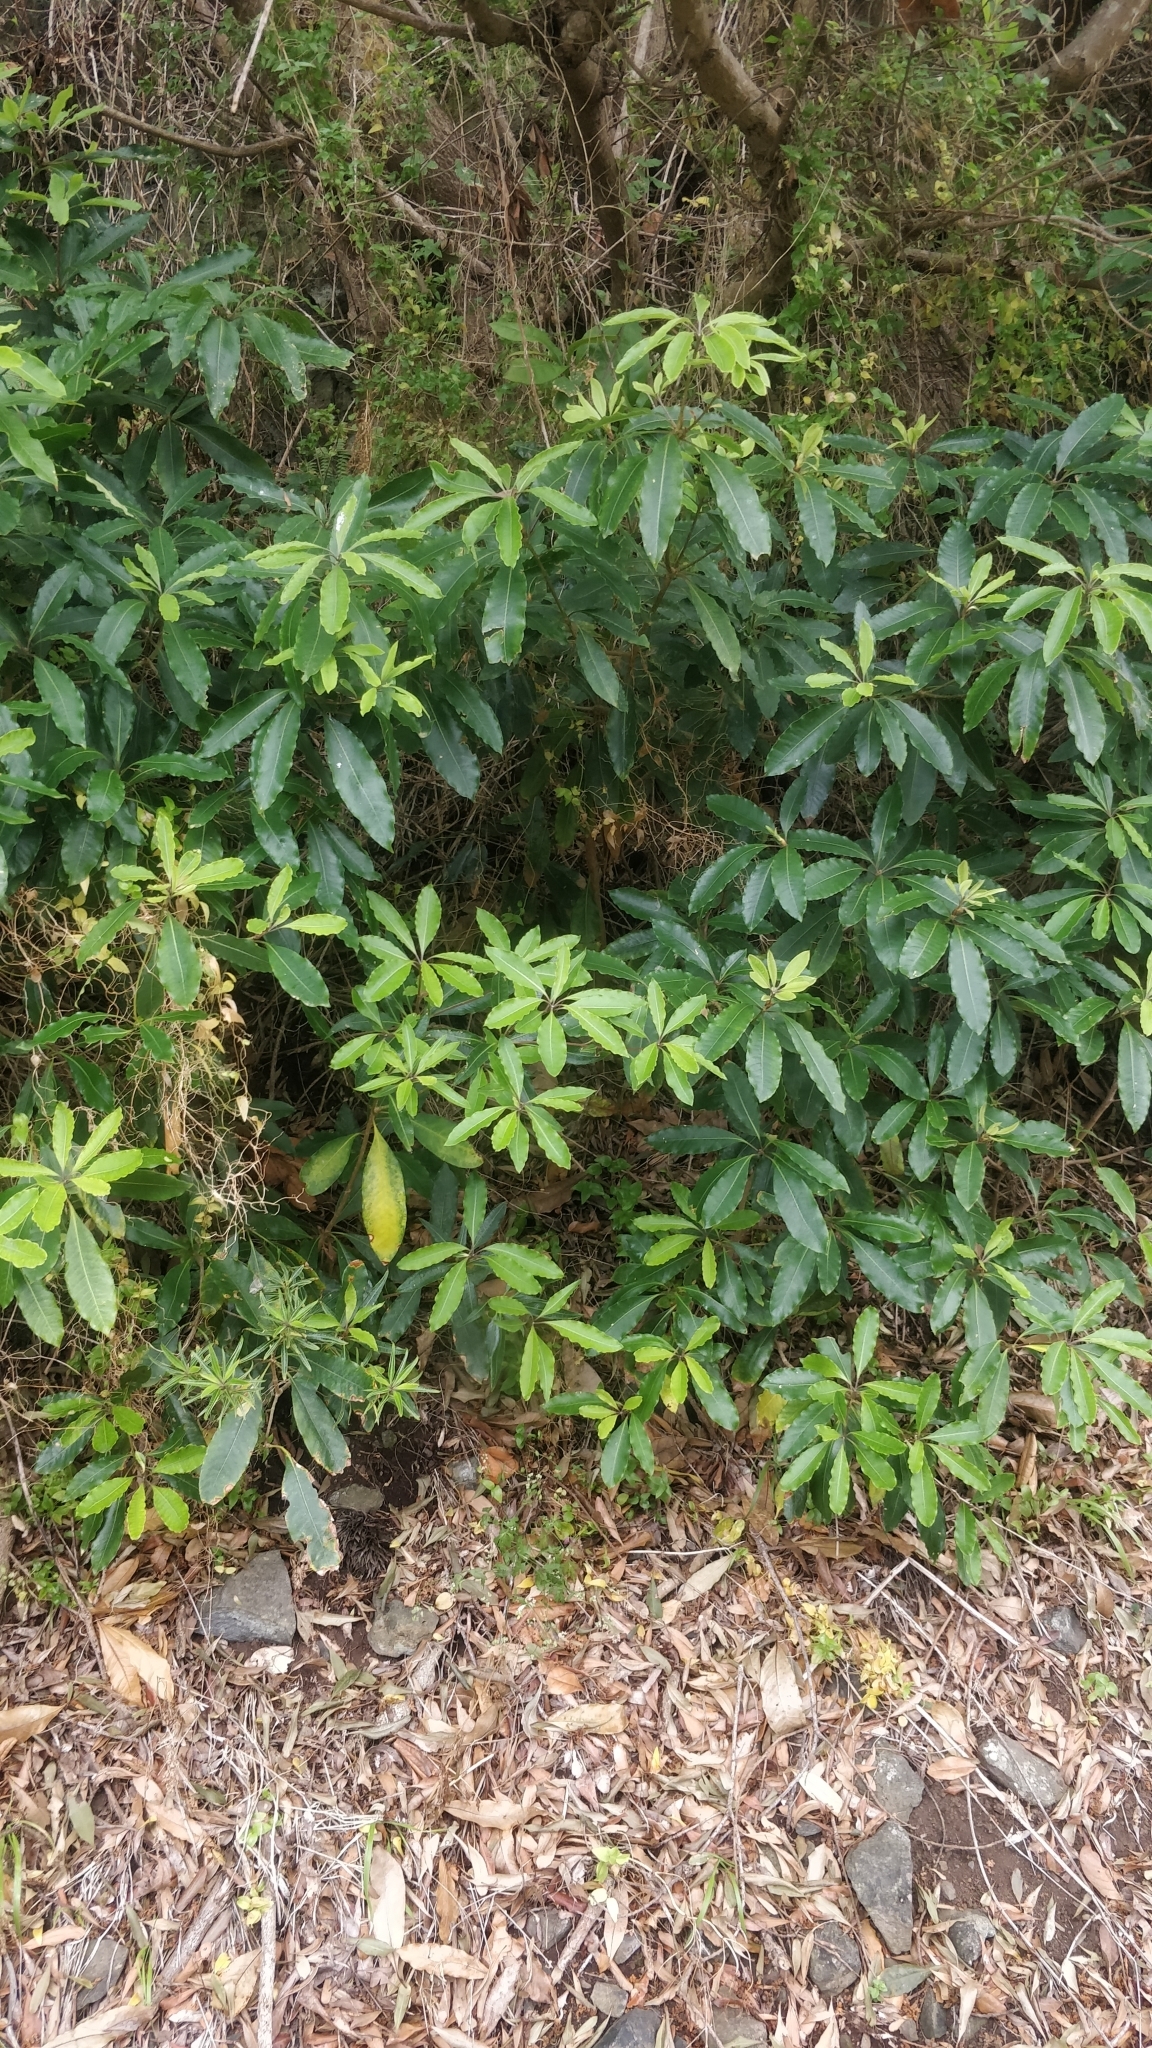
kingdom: Plantae
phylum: Tracheophyta
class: Magnoliopsida
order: Apiales
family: Pittosporaceae
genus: Pittosporum
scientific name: Pittosporum undulatum
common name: Australian cheesewood
